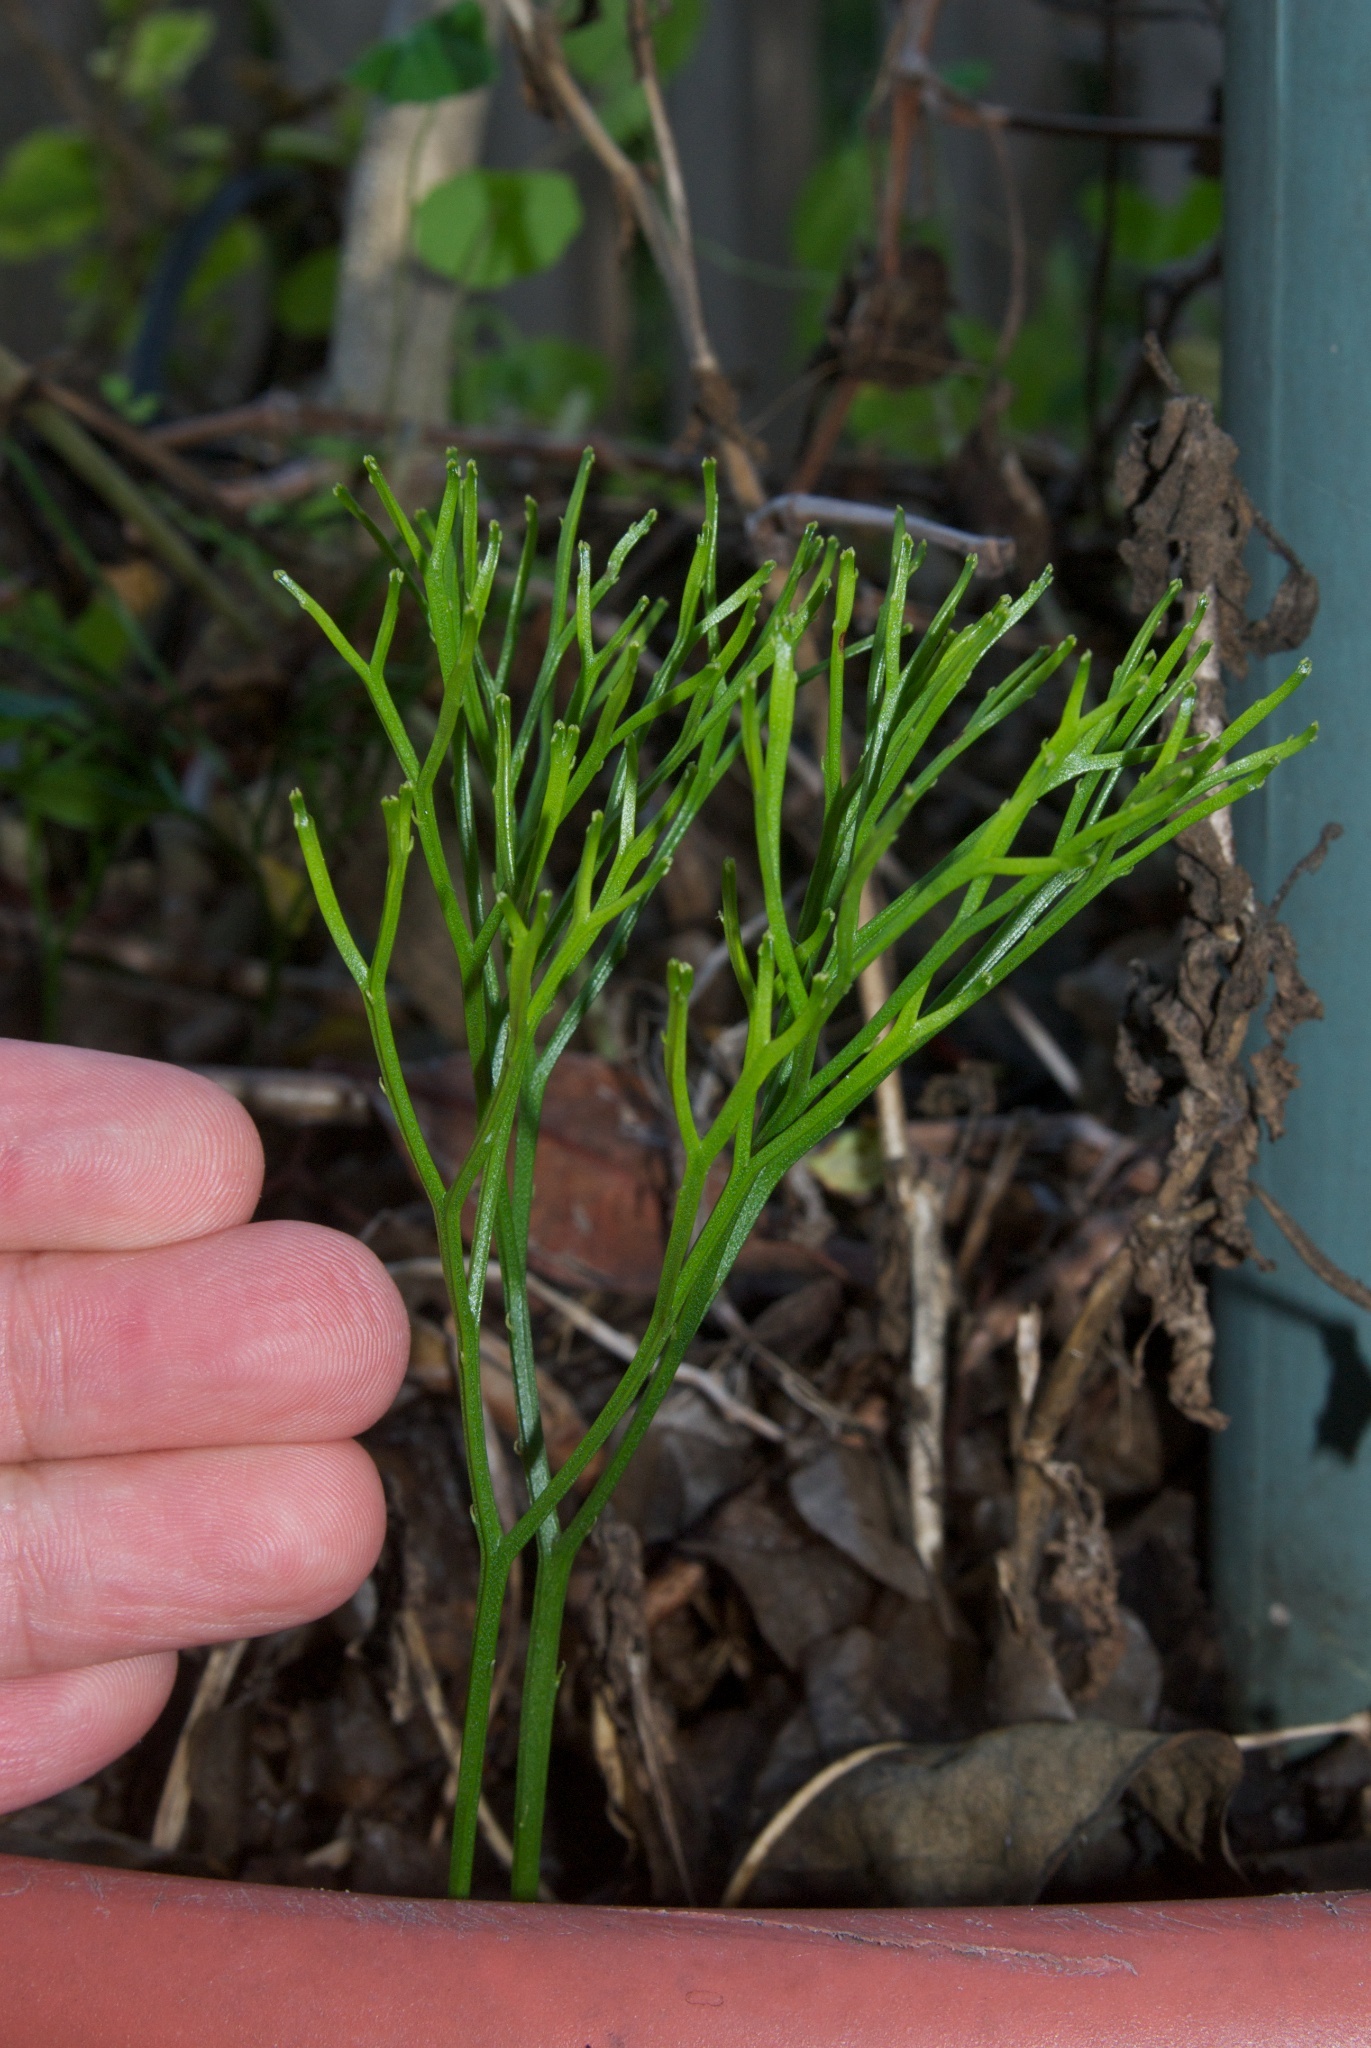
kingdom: Plantae
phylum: Tracheophyta
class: Polypodiopsida
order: Psilotales
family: Psilotaceae
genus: Psilotum
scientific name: Psilotum nudum
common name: Skeleton fork fern
